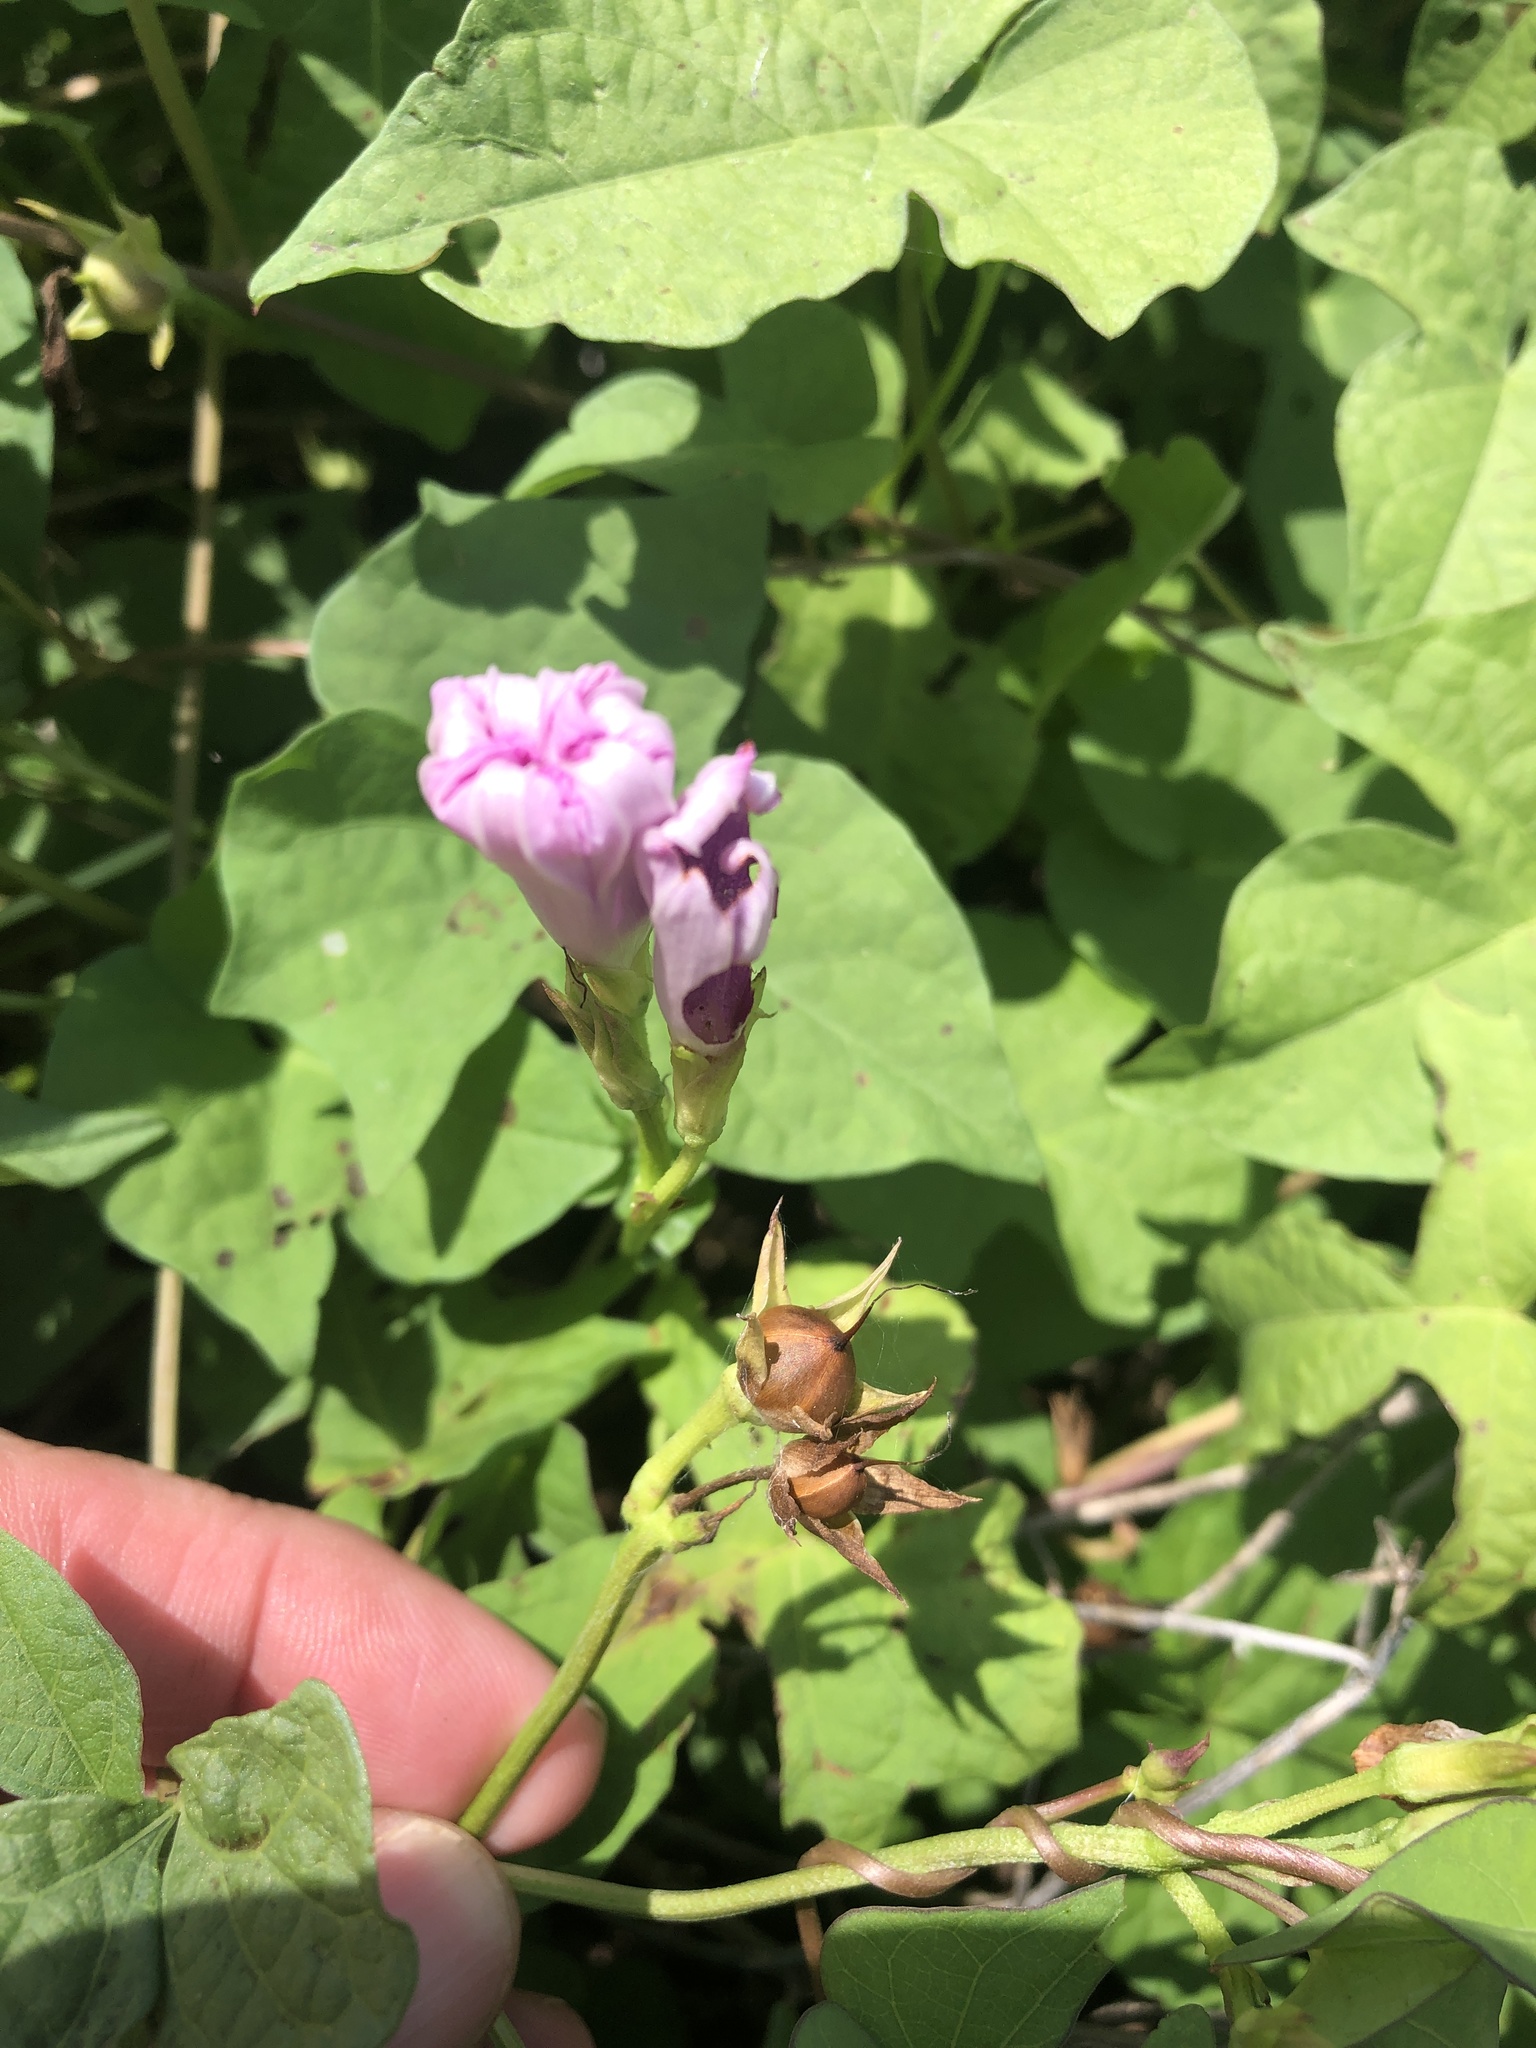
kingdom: Plantae
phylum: Tracheophyta
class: Magnoliopsida
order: Solanales
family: Convolvulaceae
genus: Ipomoea
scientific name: Ipomoea cordatotriloba
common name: Cotton morning glory
